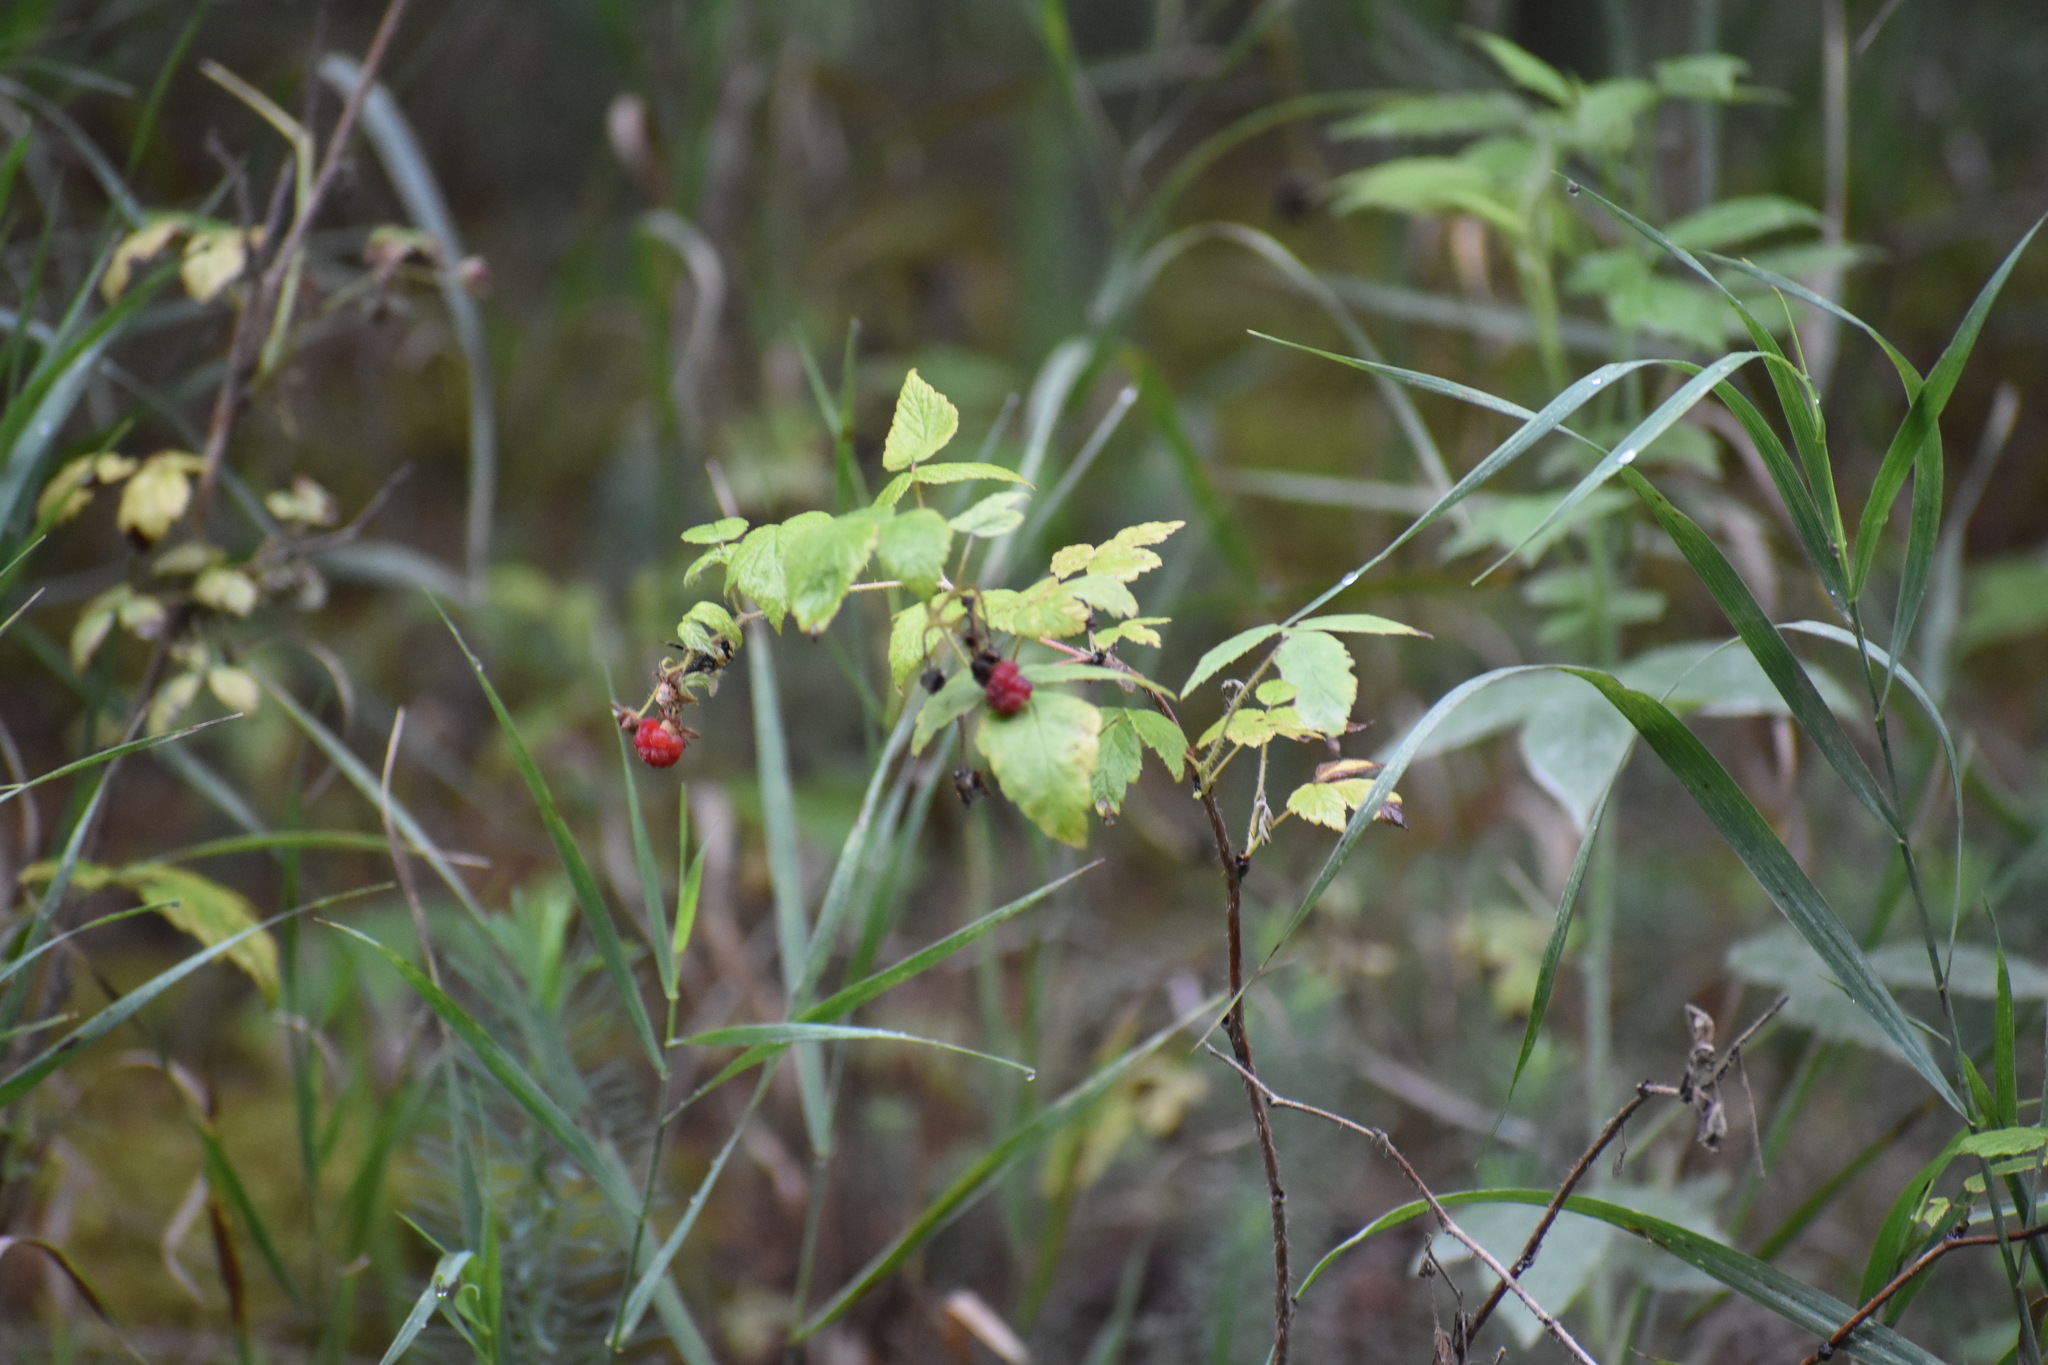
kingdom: Plantae
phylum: Tracheophyta
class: Magnoliopsida
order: Rosales
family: Rosaceae
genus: Rubus
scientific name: Rubus idaeus
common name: Raspberry
